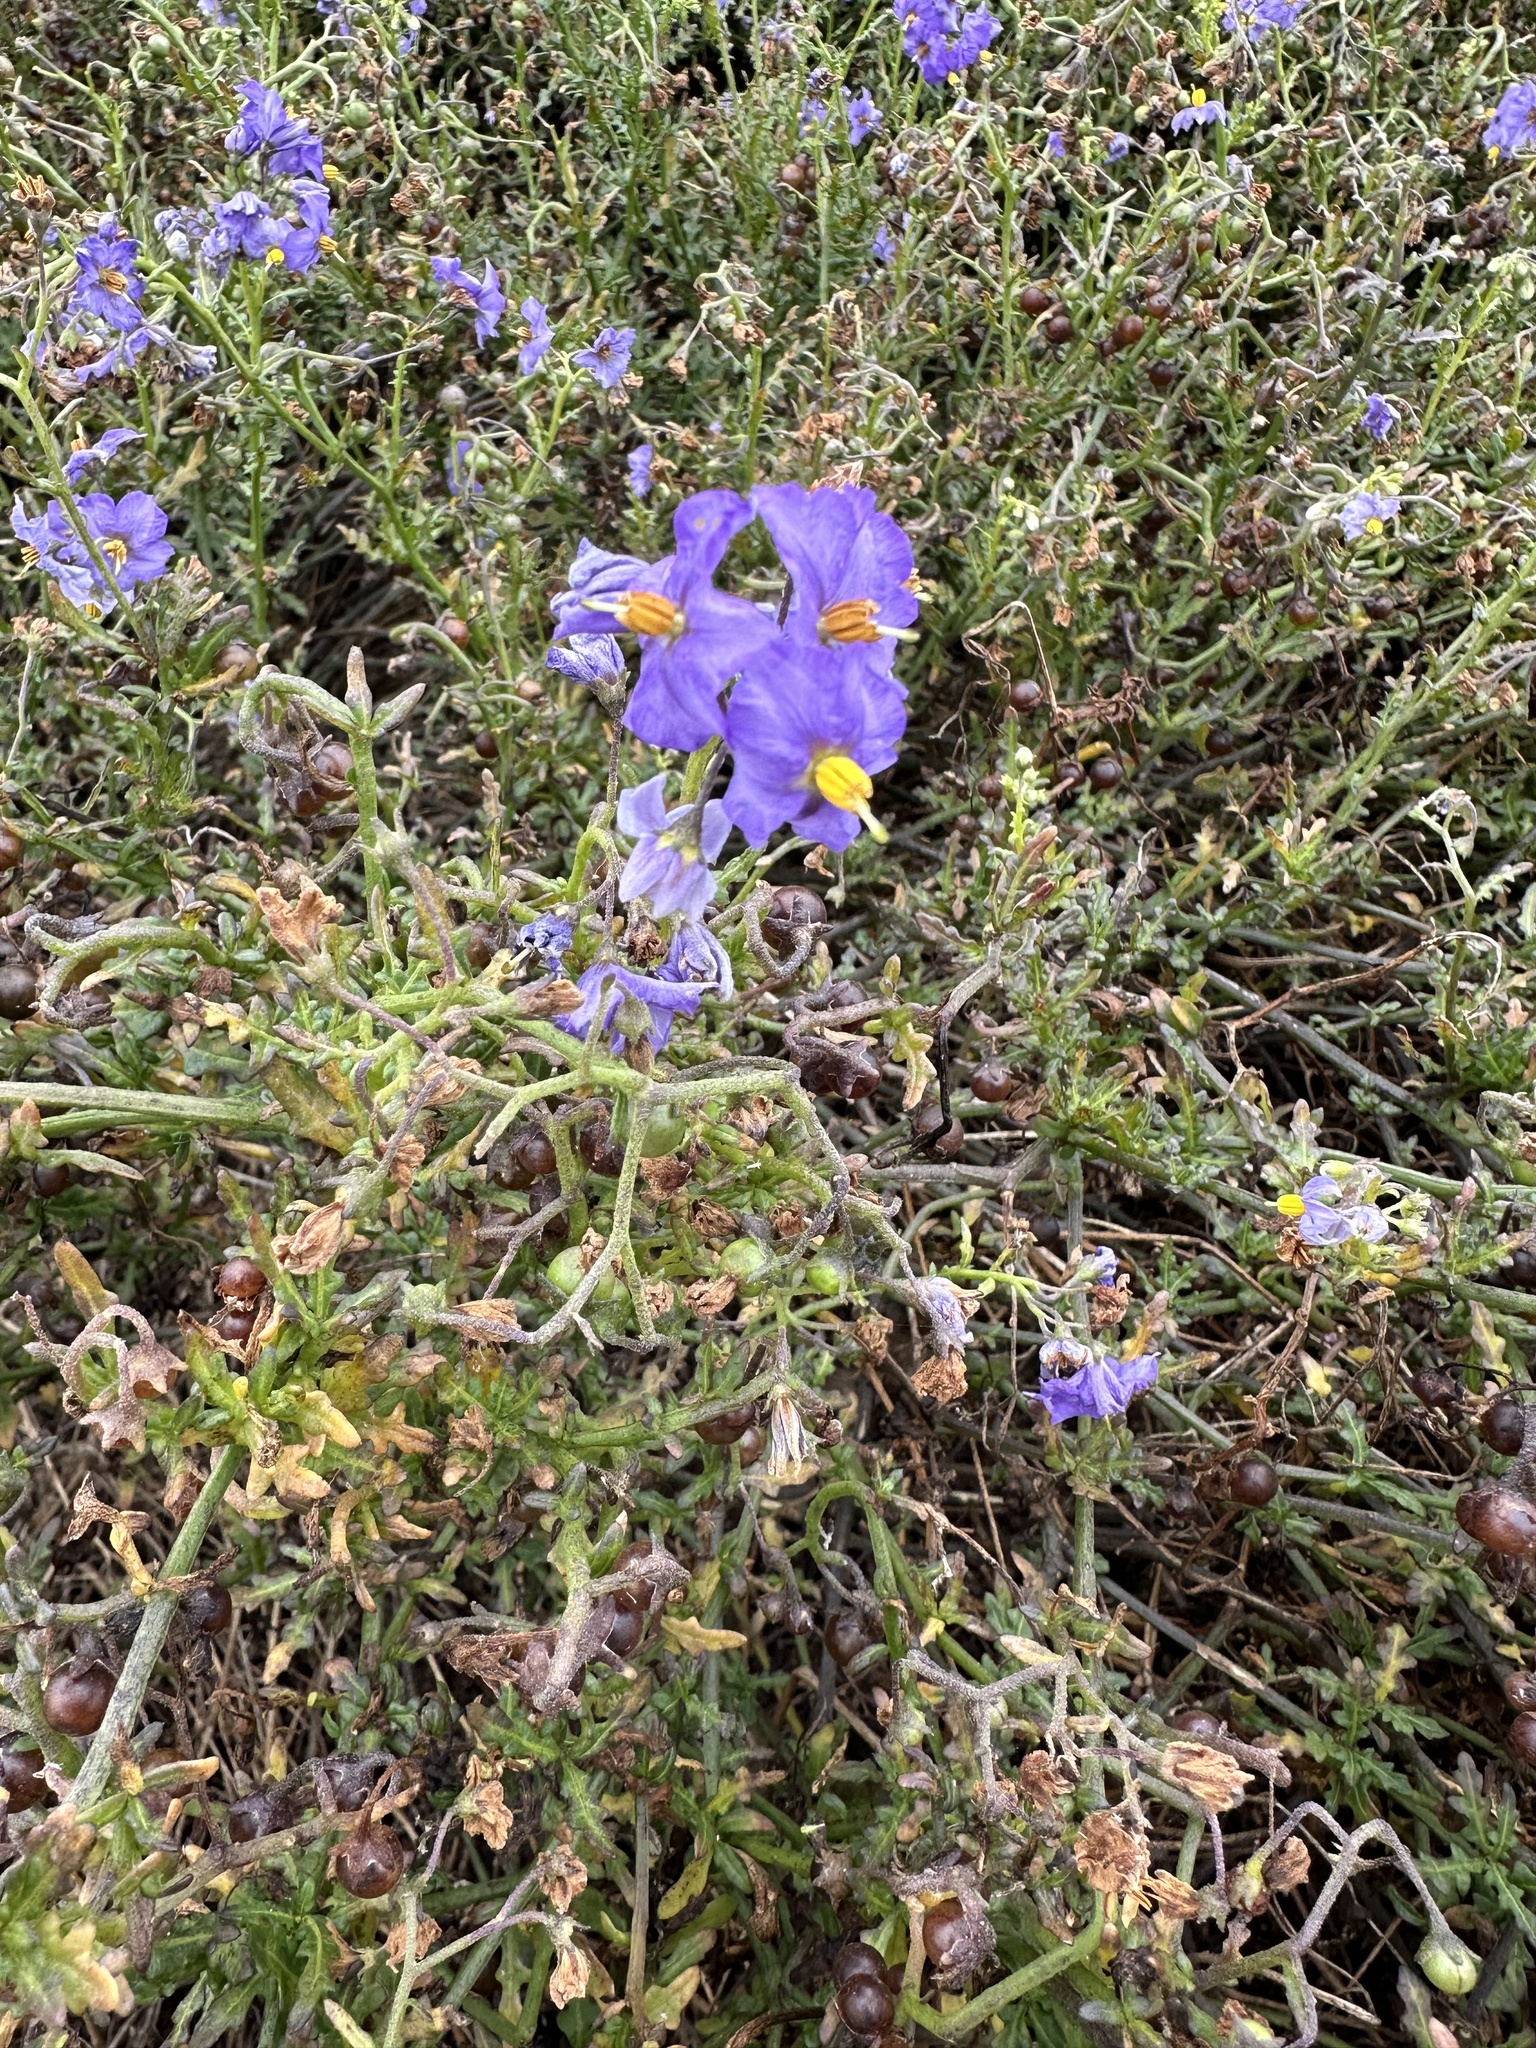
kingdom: Plantae
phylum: Tracheophyta
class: Magnoliopsida
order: Solanales
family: Solanaceae
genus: Solanum
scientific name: Solanum pinnatum
